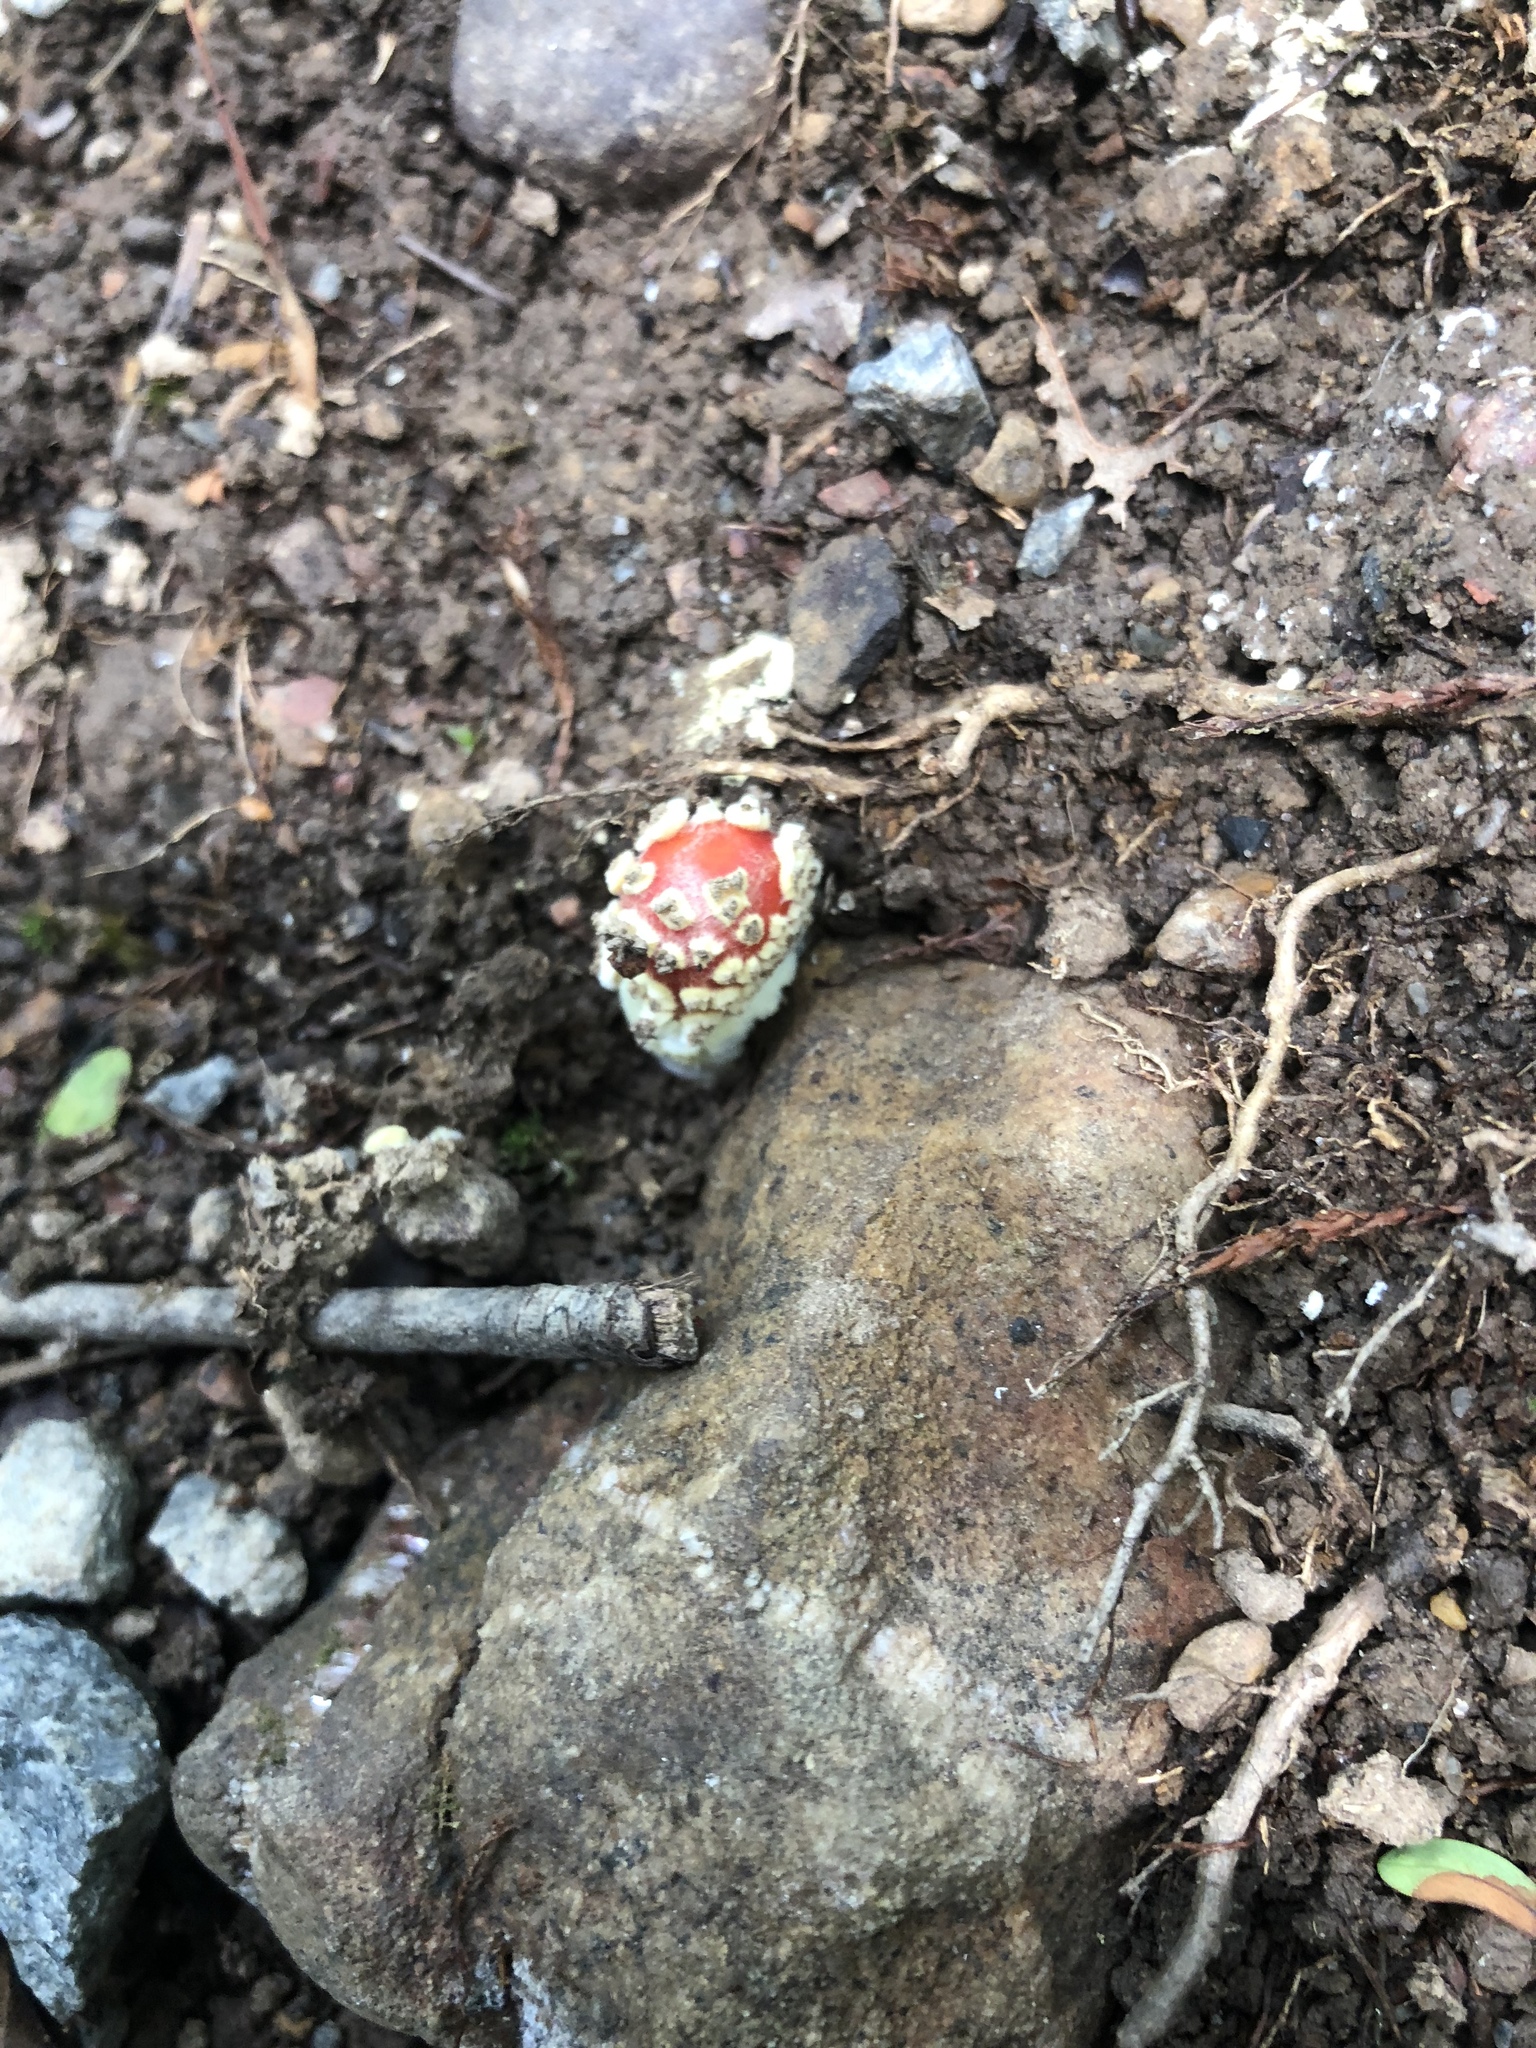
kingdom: Fungi
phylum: Basidiomycota
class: Agaricomycetes
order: Agaricales
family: Amanitaceae
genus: Amanita
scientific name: Amanita parcivolvata
